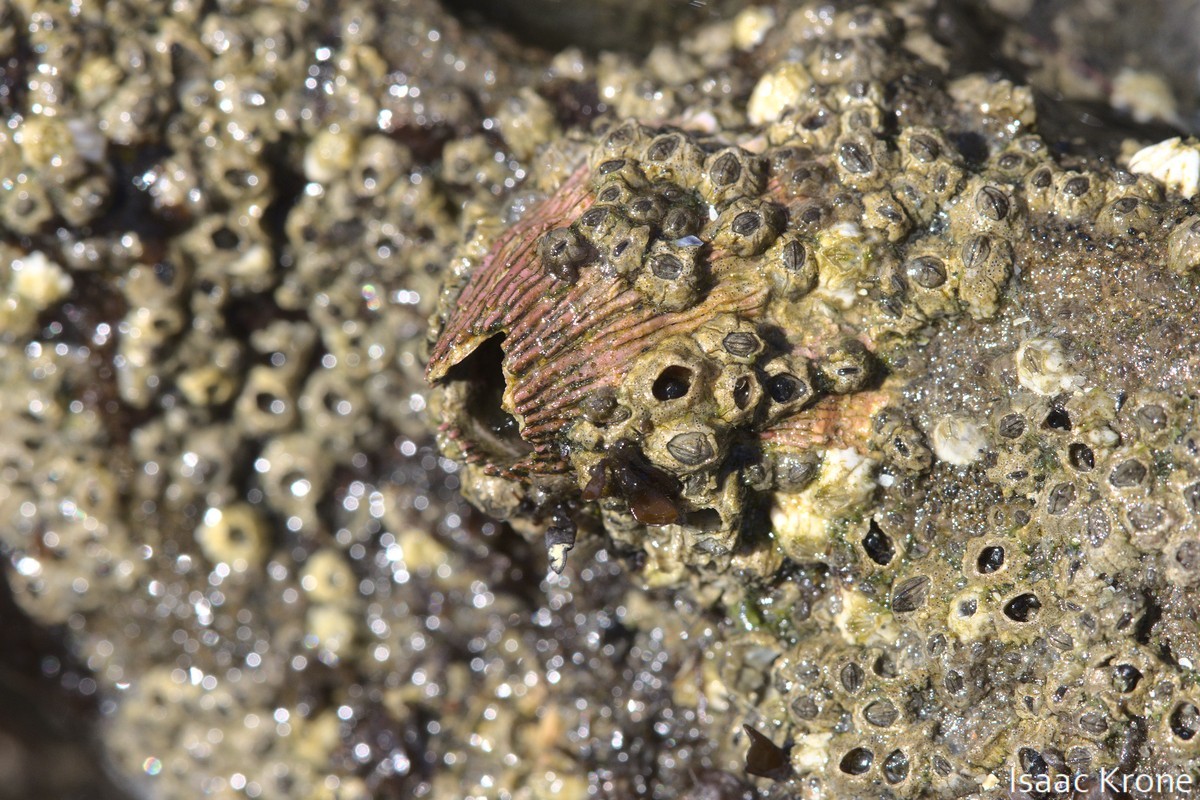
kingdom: Animalia
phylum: Arthropoda
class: Maxillopoda
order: Sessilia
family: Tetraclitidae
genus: Tetraclita
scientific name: Tetraclita rubescens
